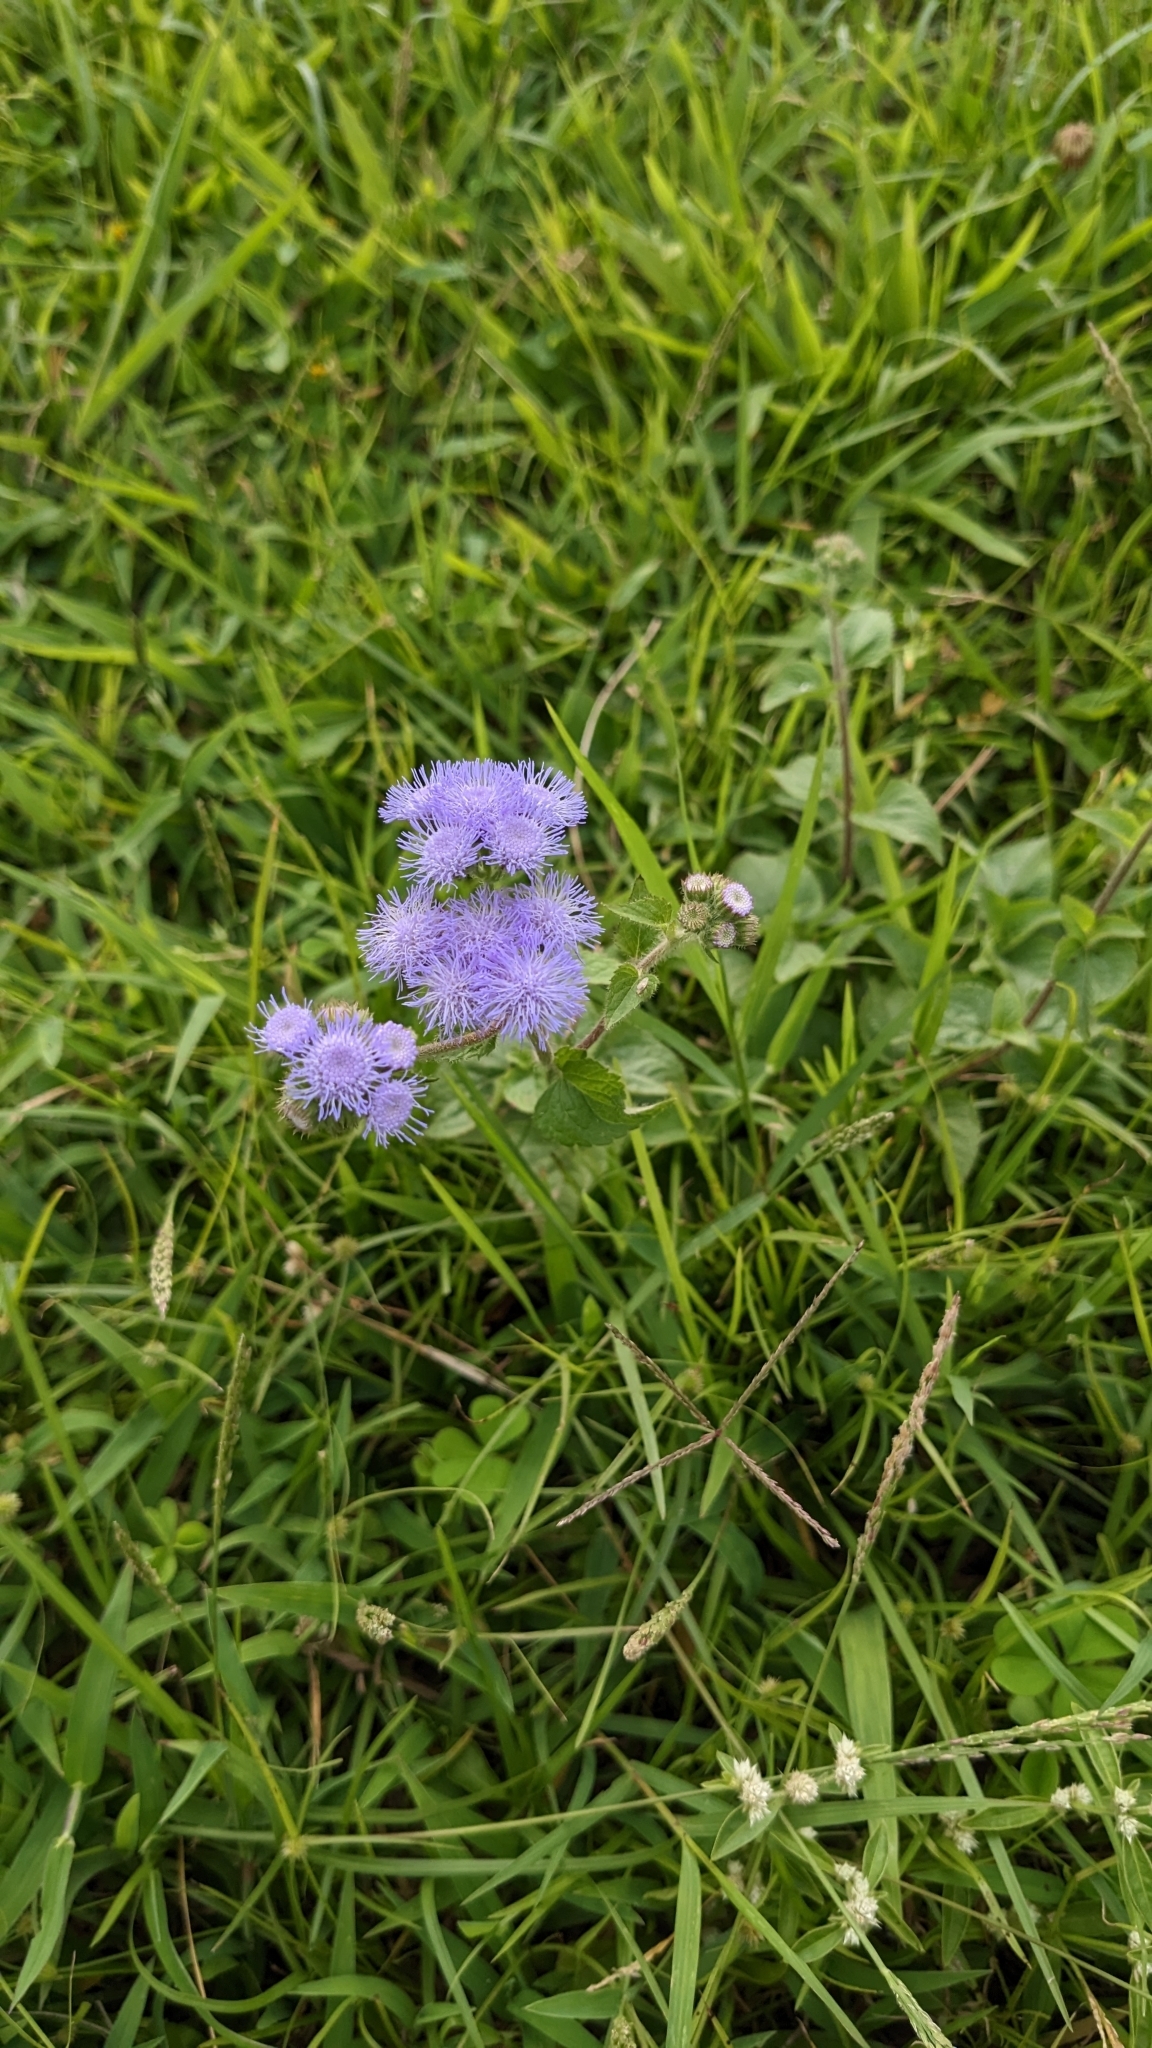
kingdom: Plantae
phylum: Tracheophyta
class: Magnoliopsida
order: Asterales
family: Asteraceae
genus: Ageratum
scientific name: Ageratum houstonianum
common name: Bluemink
